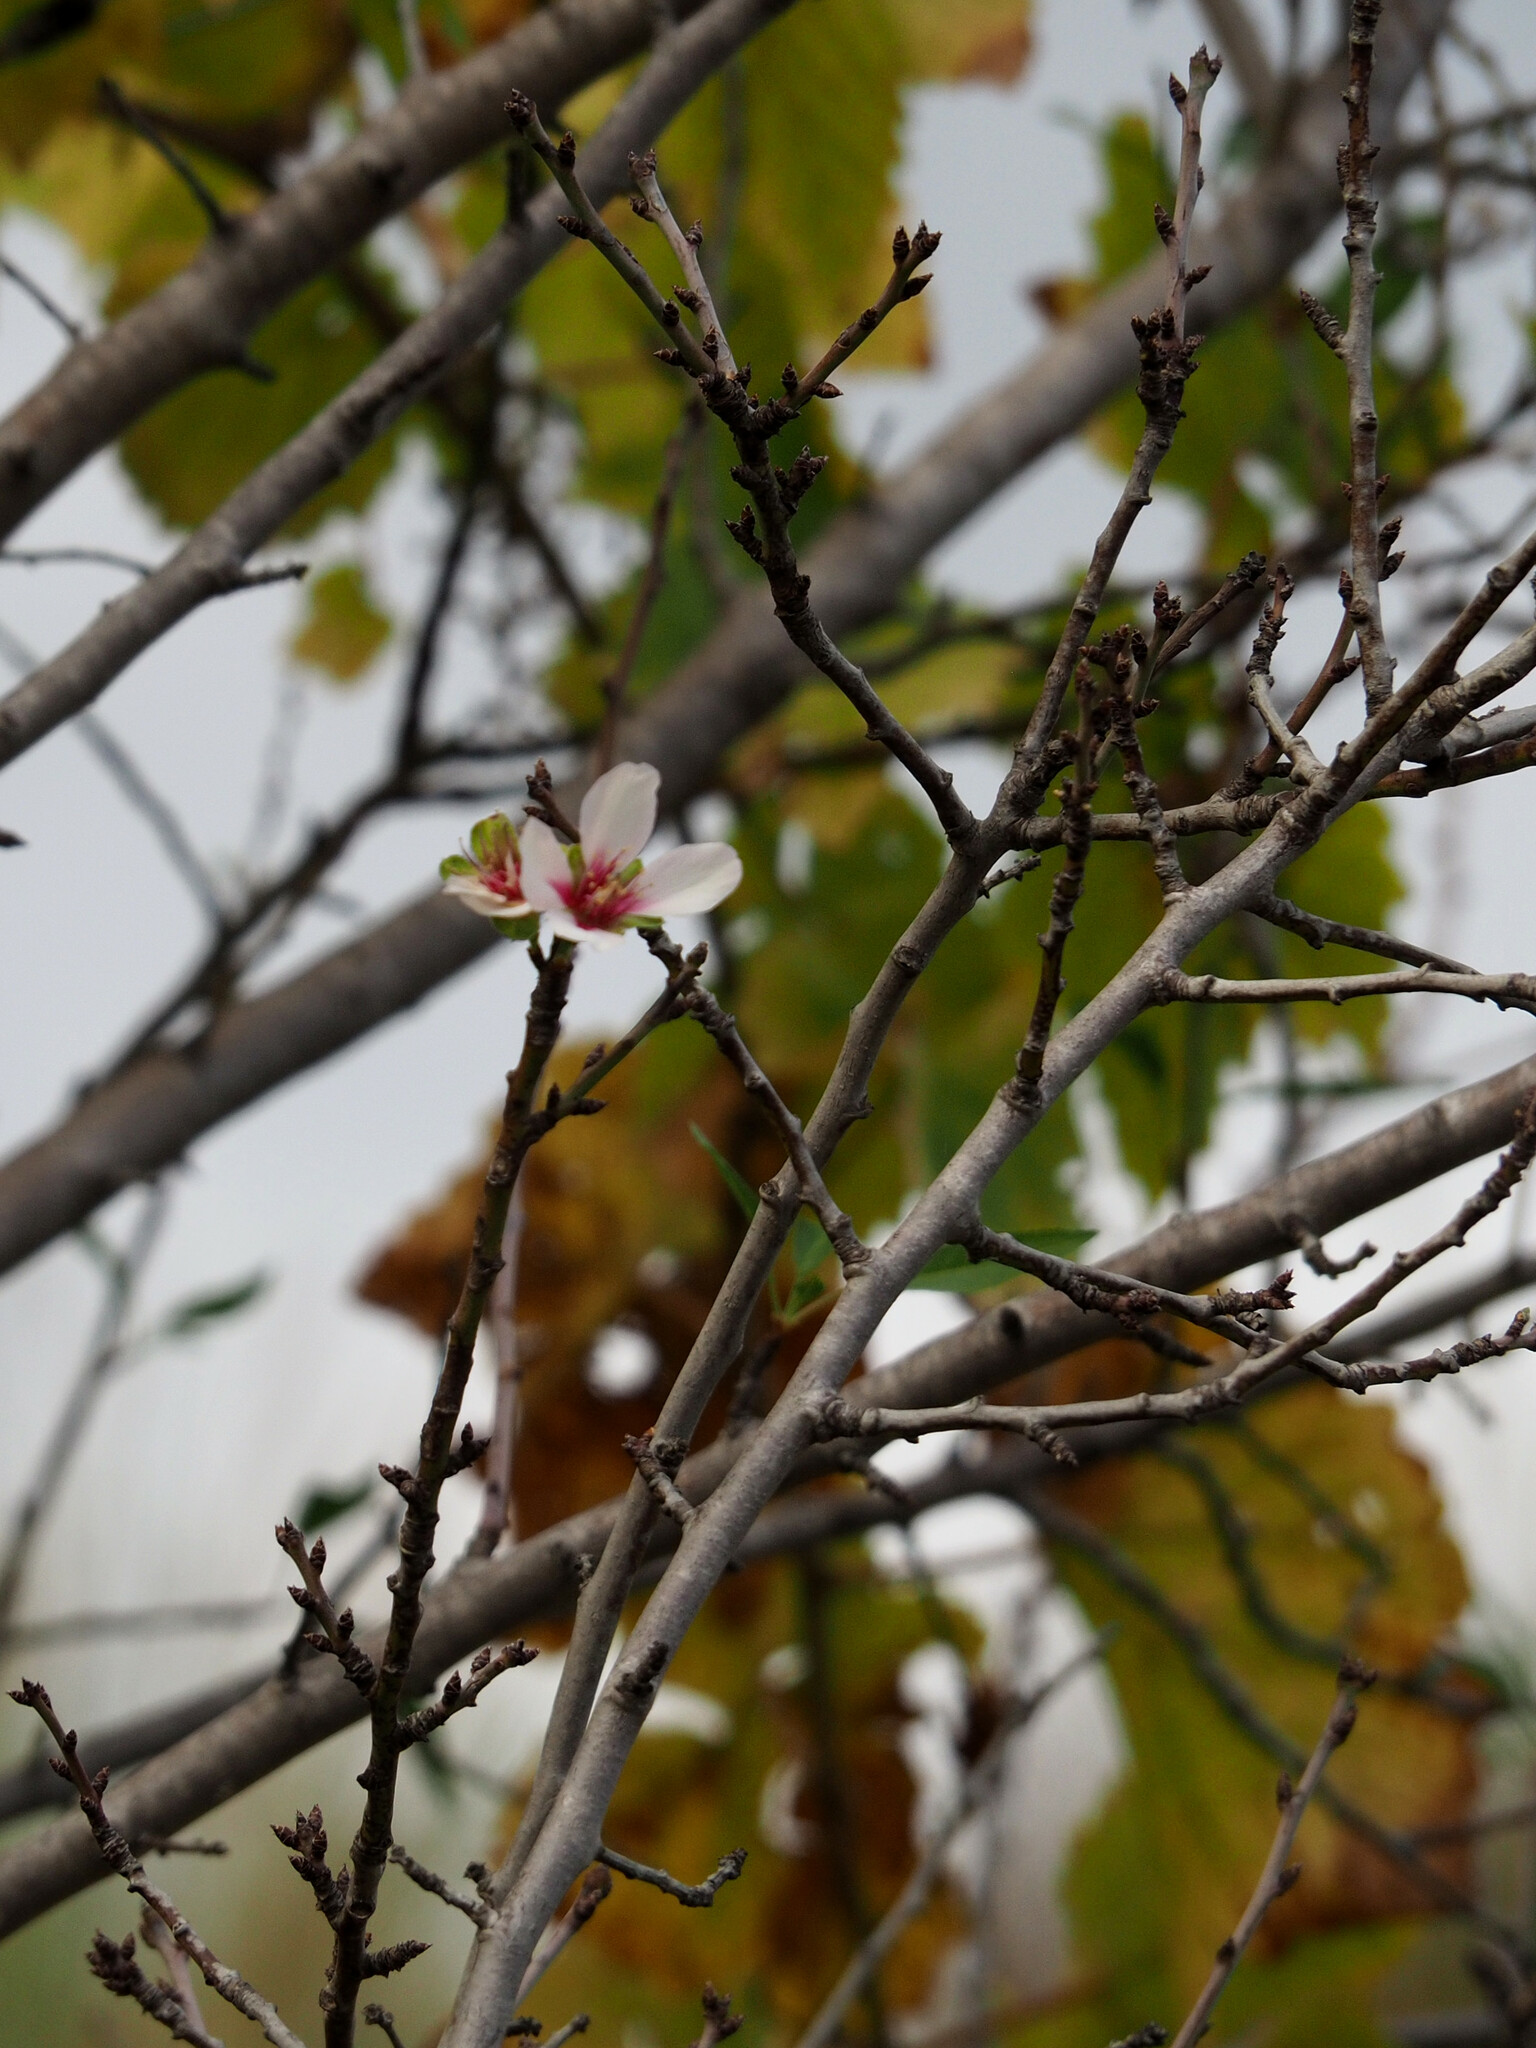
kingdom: Plantae
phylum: Tracheophyta
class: Magnoliopsida
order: Rosales
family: Rosaceae
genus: Prunus
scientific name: Prunus amygdalus
